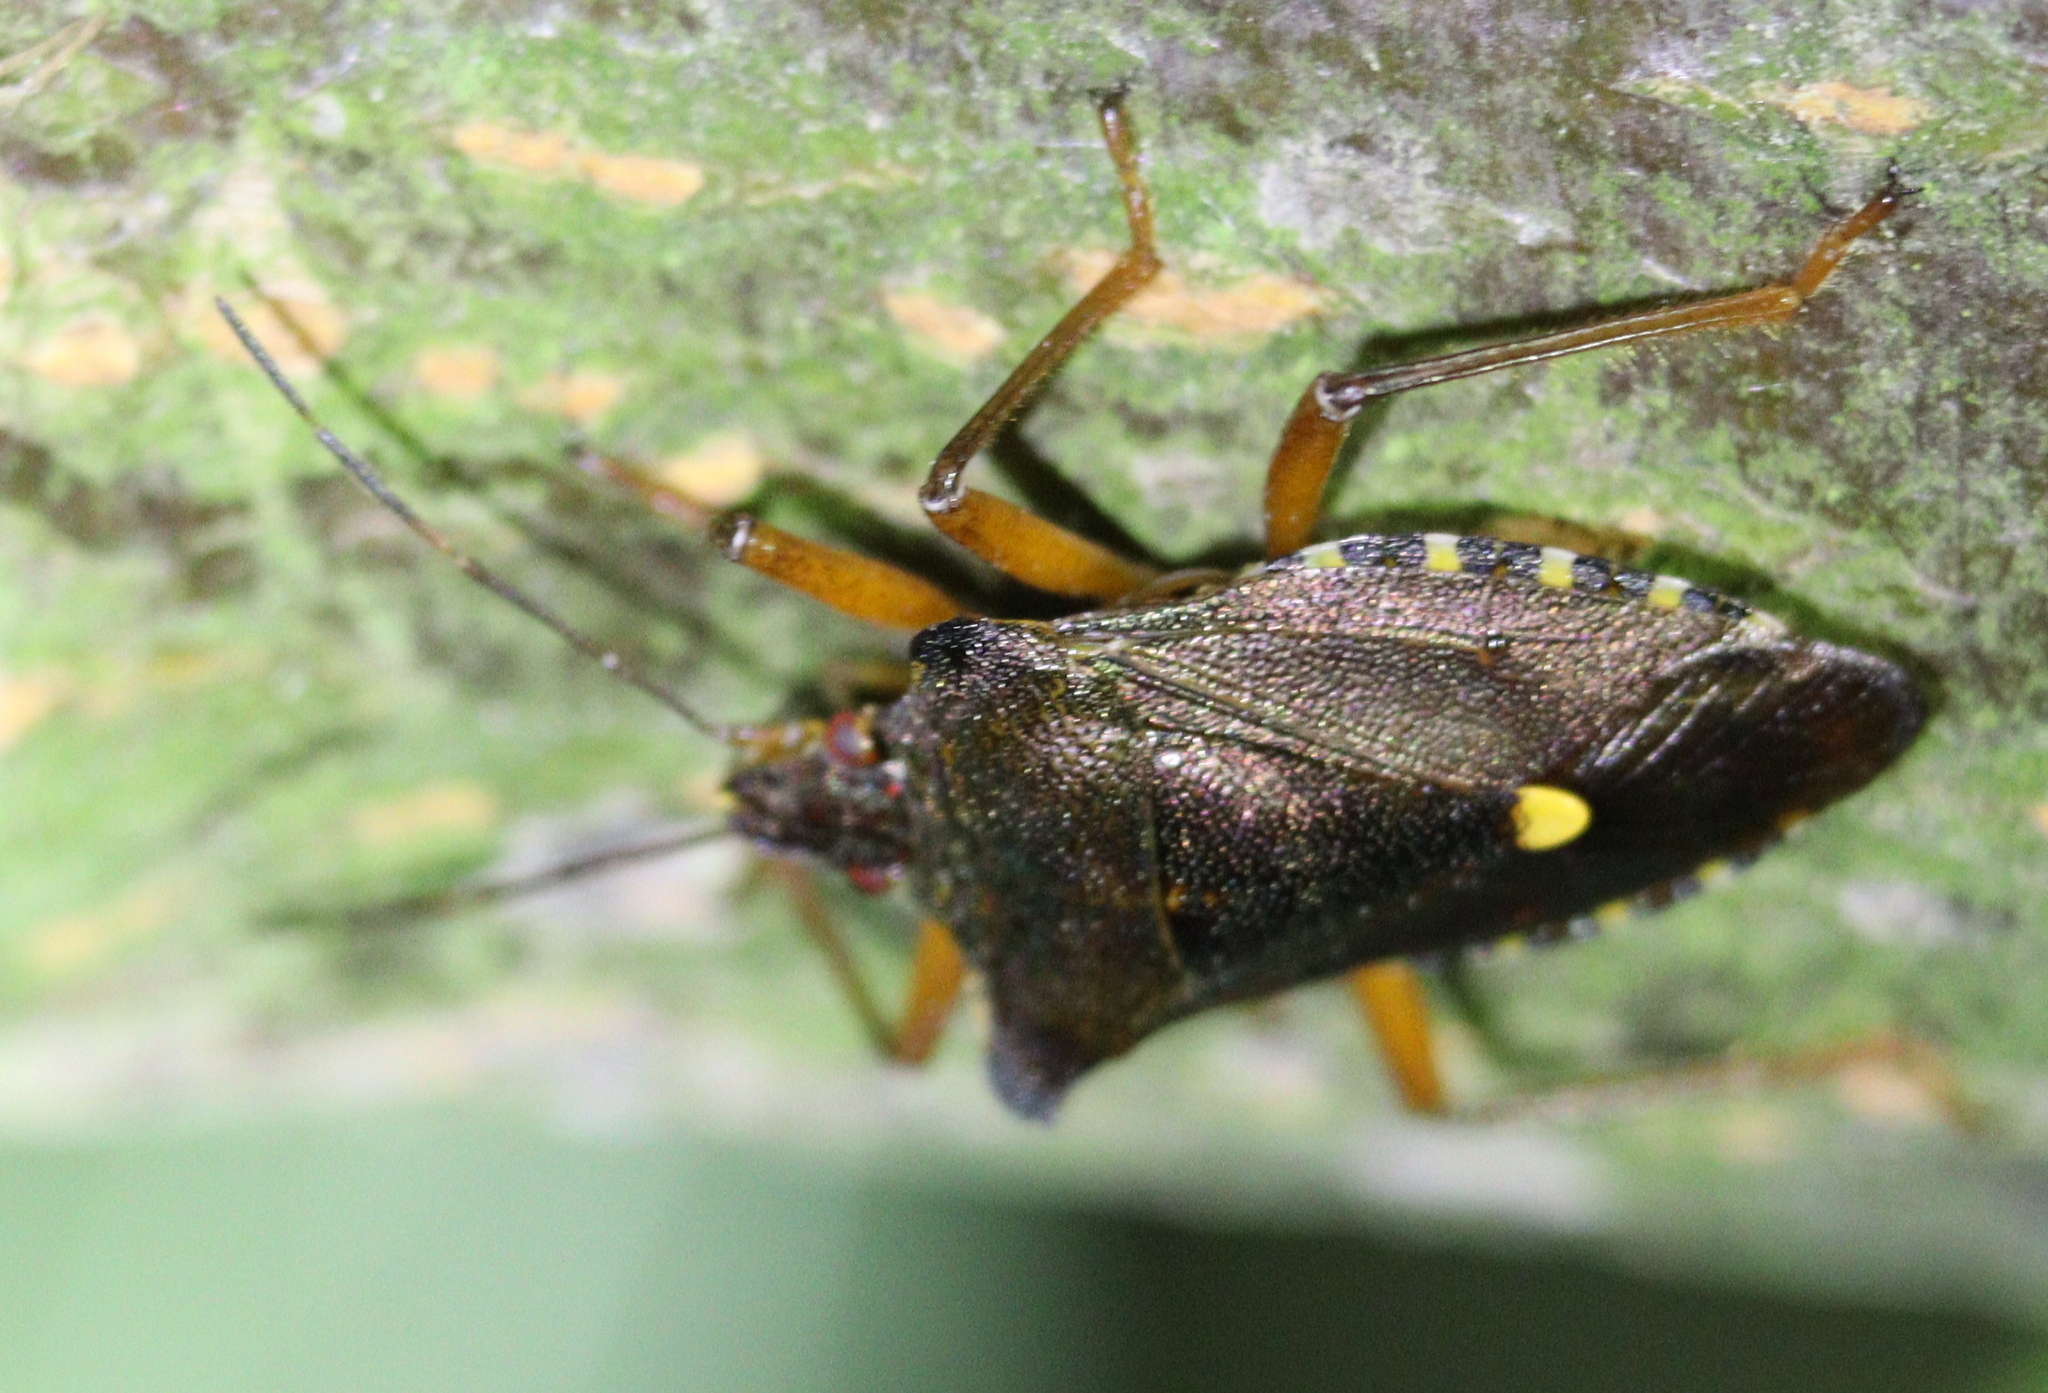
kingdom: Animalia
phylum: Arthropoda
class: Insecta
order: Hemiptera
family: Pentatomidae
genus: Pentatoma
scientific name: Pentatoma rufipes
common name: Forest bug
